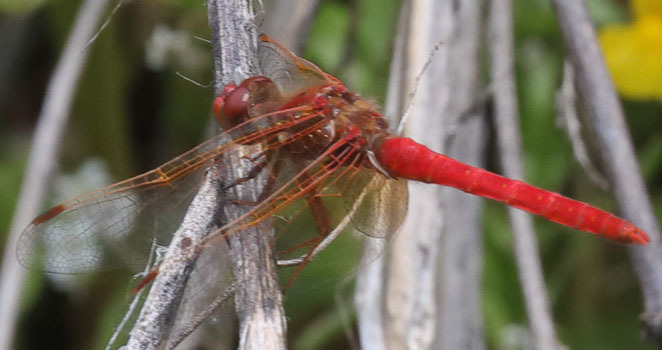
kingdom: Animalia
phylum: Arthropoda
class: Insecta
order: Odonata
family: Libellulidae
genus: Sympetrum
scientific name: Sympetrum illotum
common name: Cardinal meadowhawk
